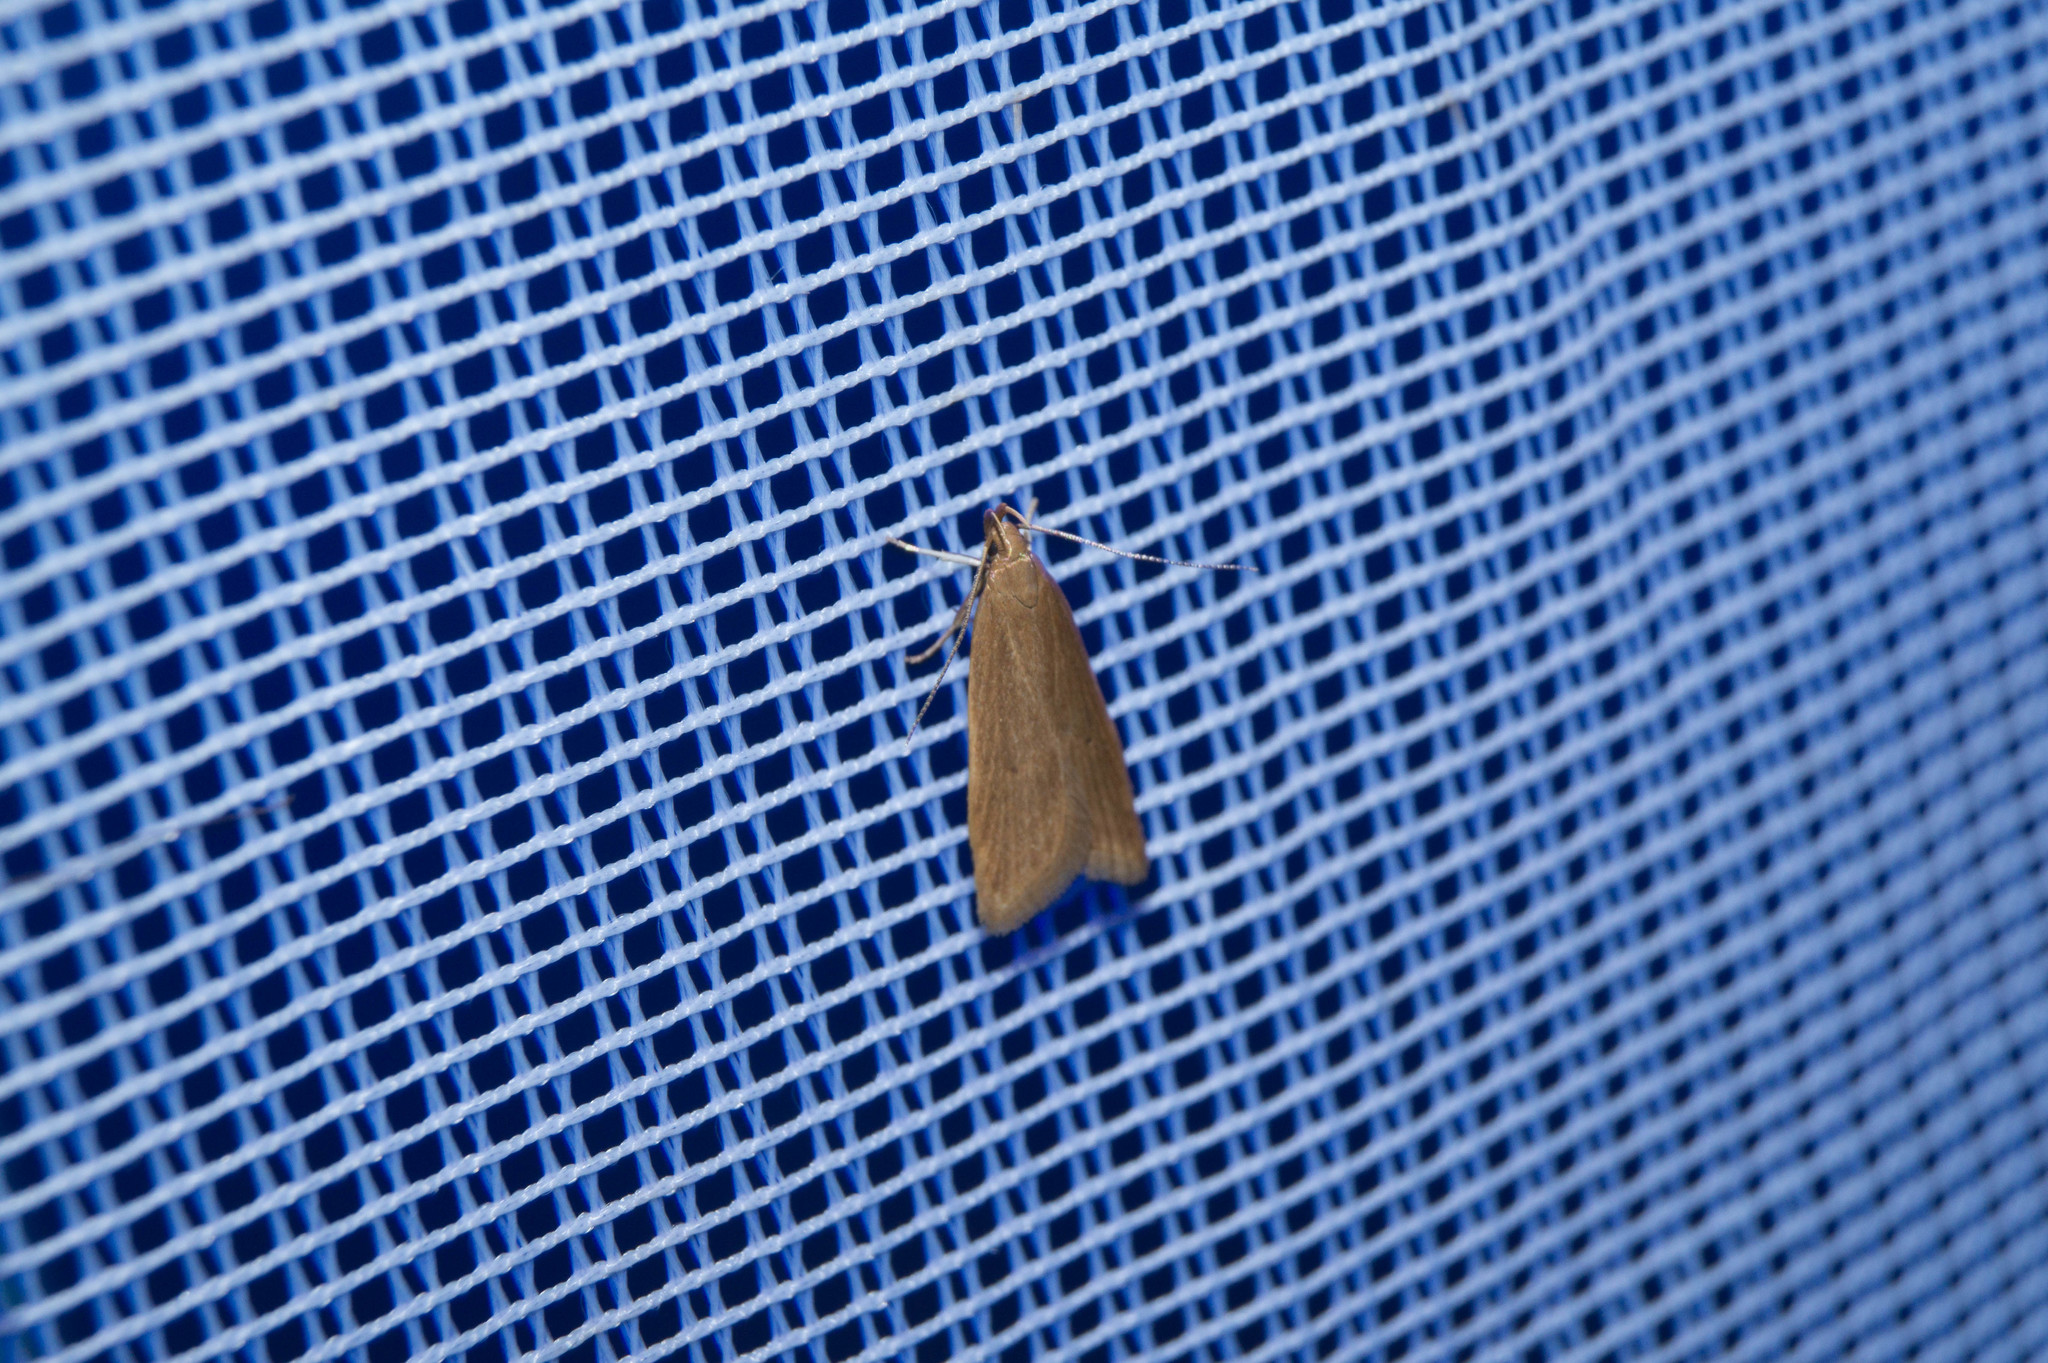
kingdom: Animalia
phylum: Arthropoda
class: Insecta
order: Lepidoptera
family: Gelechiidae
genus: Helcystogramma
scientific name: Helcystogramma rufescens
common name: Orange crest
